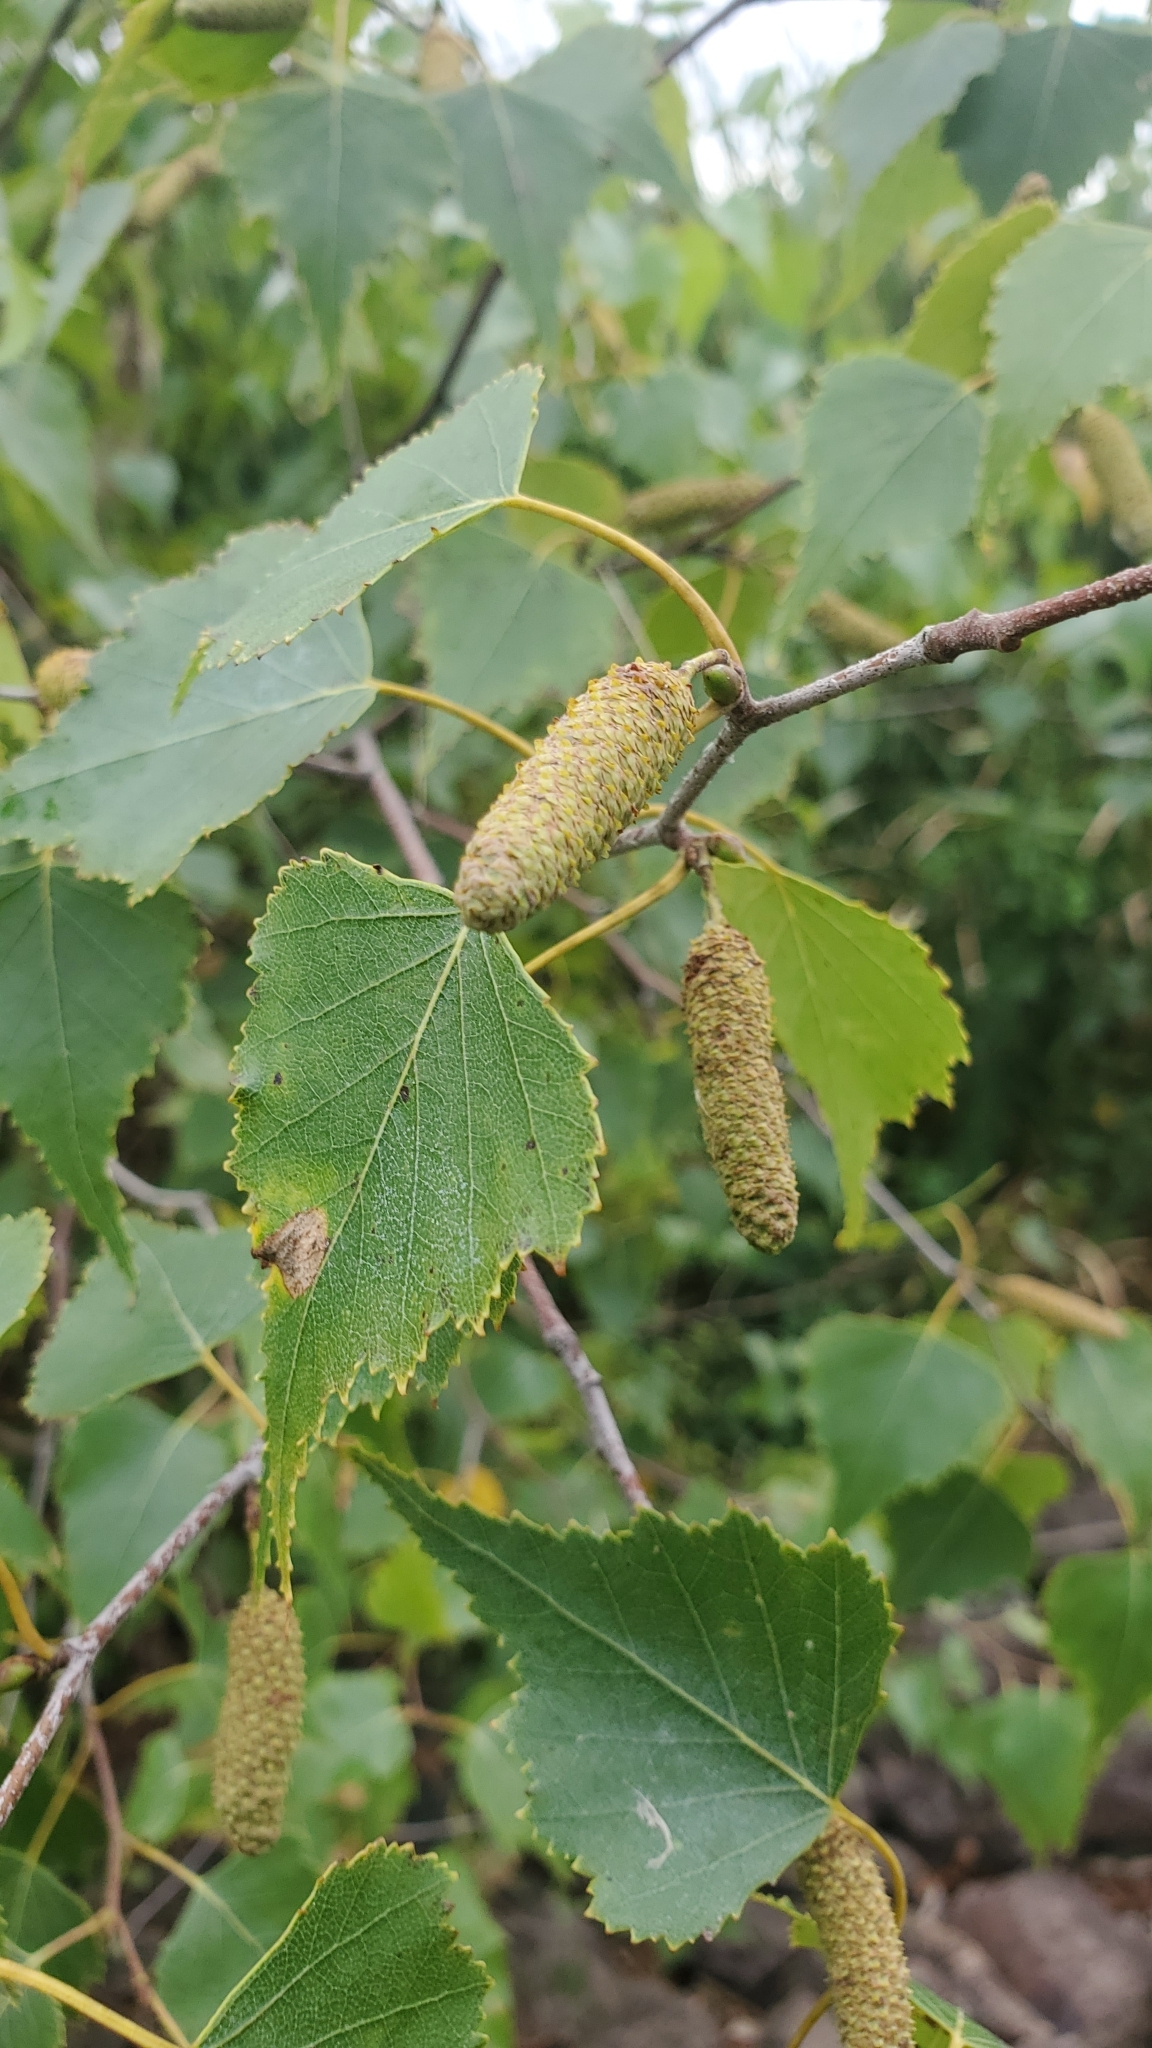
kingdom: Plantae
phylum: Tracheophyta
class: Magnoliopsida
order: Fagales
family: Betulaceae
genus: Betula
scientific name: Betula populifolia
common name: Fire birch
